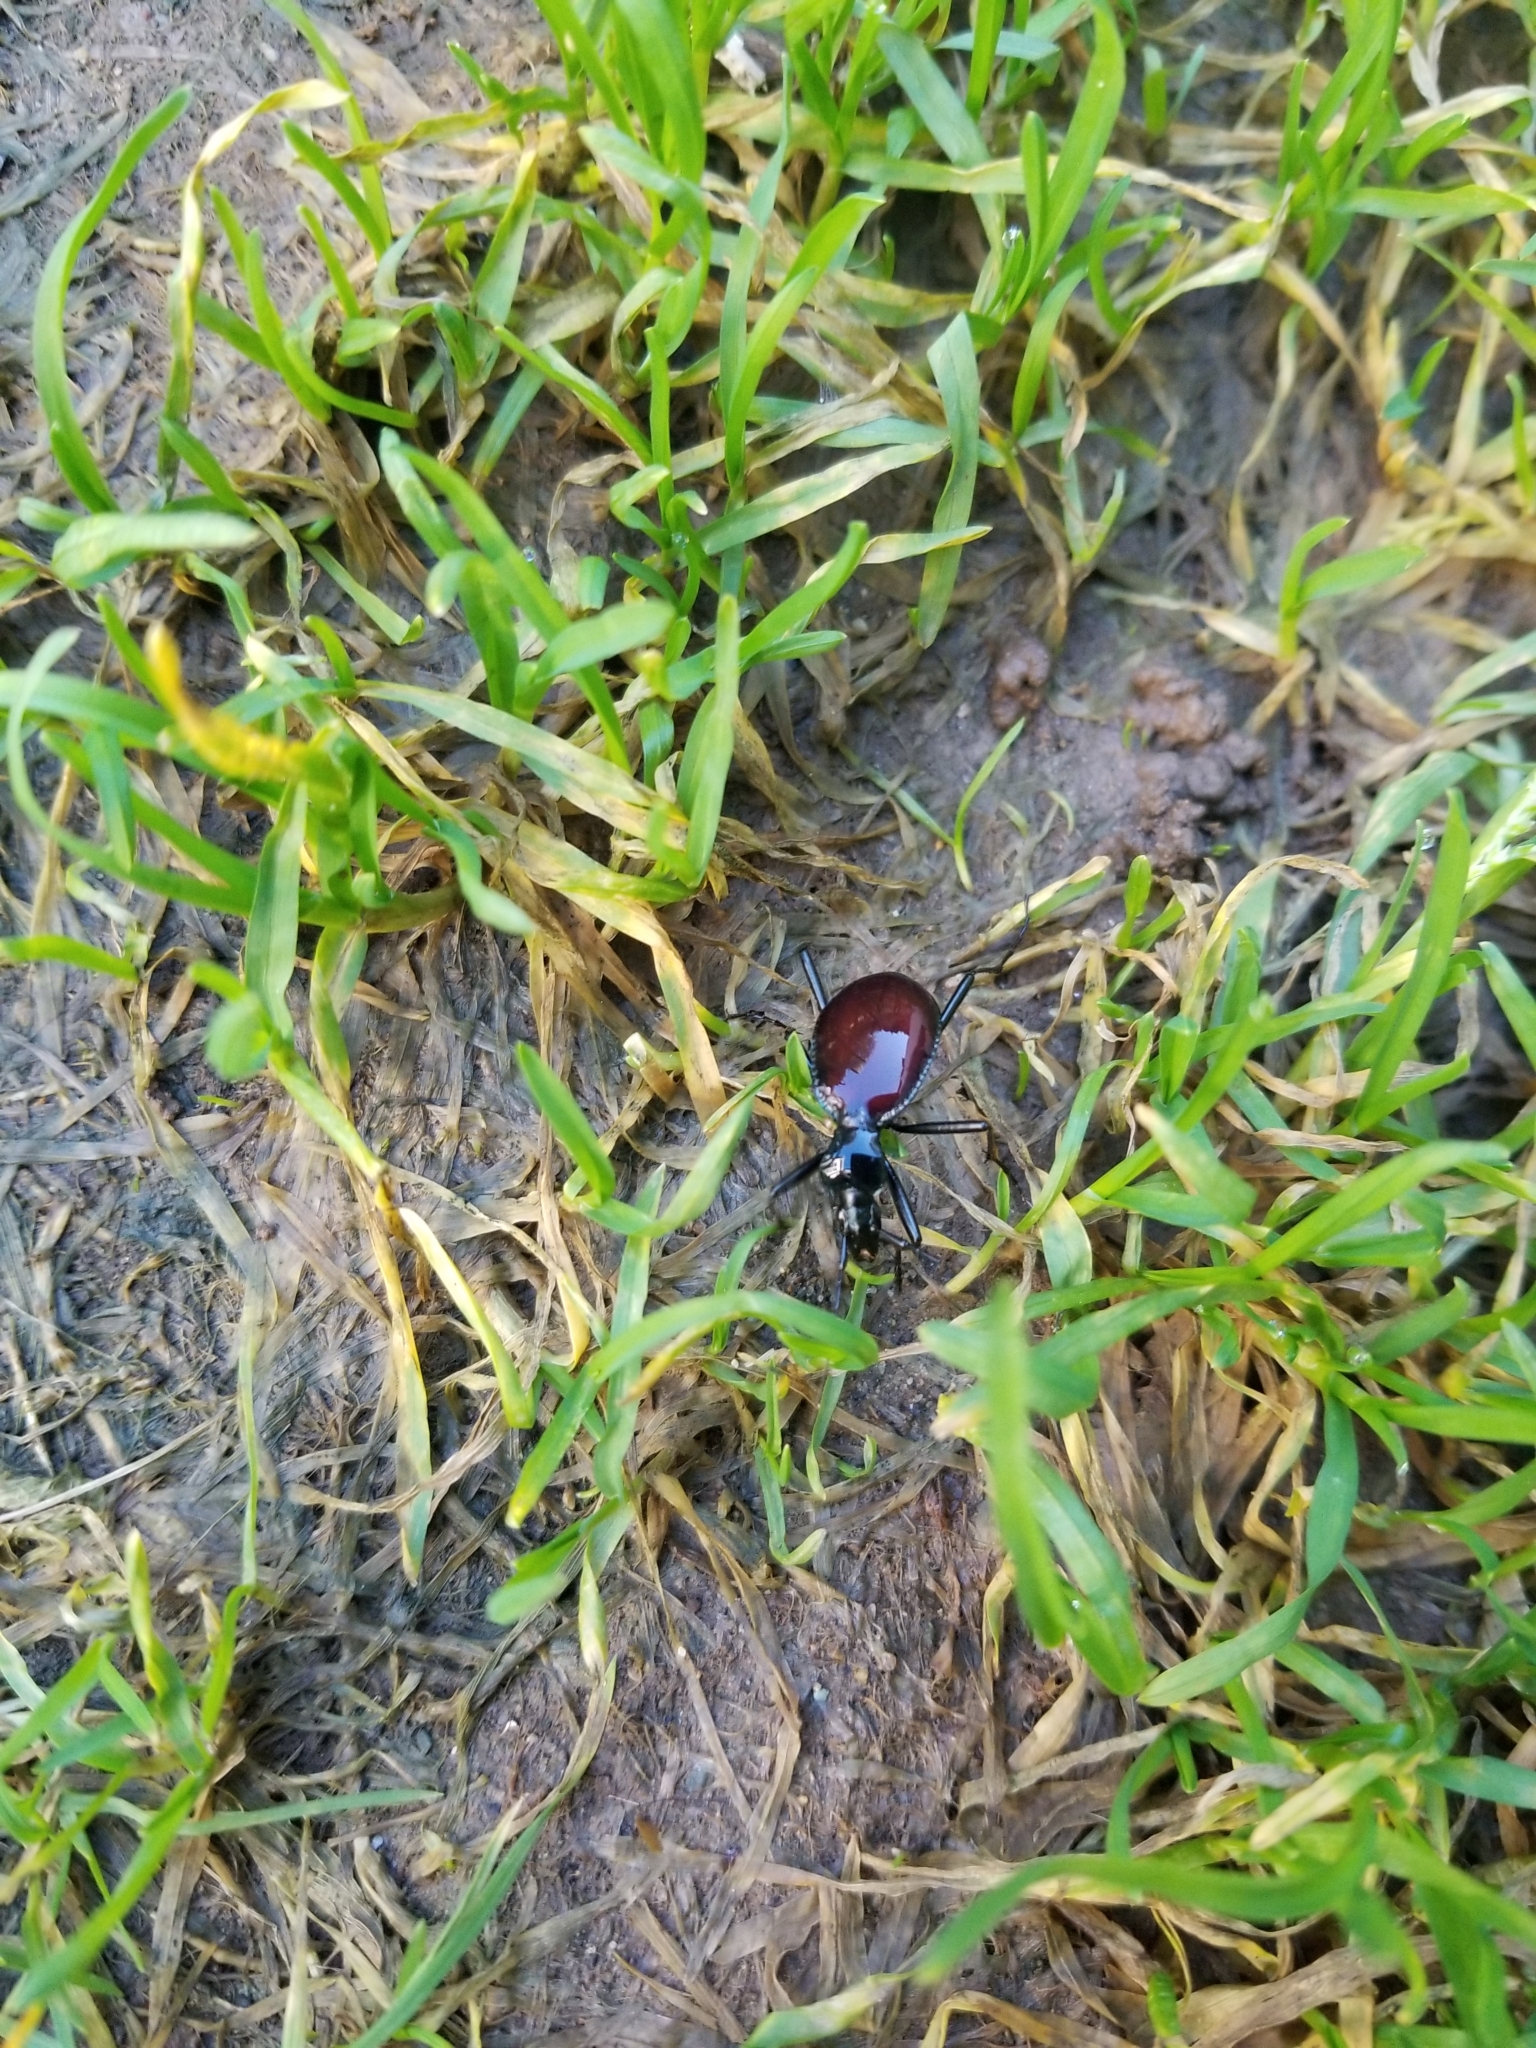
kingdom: Animalia
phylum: Arthropoda
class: Insecta
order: Coleoptera
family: Carabidae
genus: Scaphinotus
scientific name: Scaphinotus angusticollis
